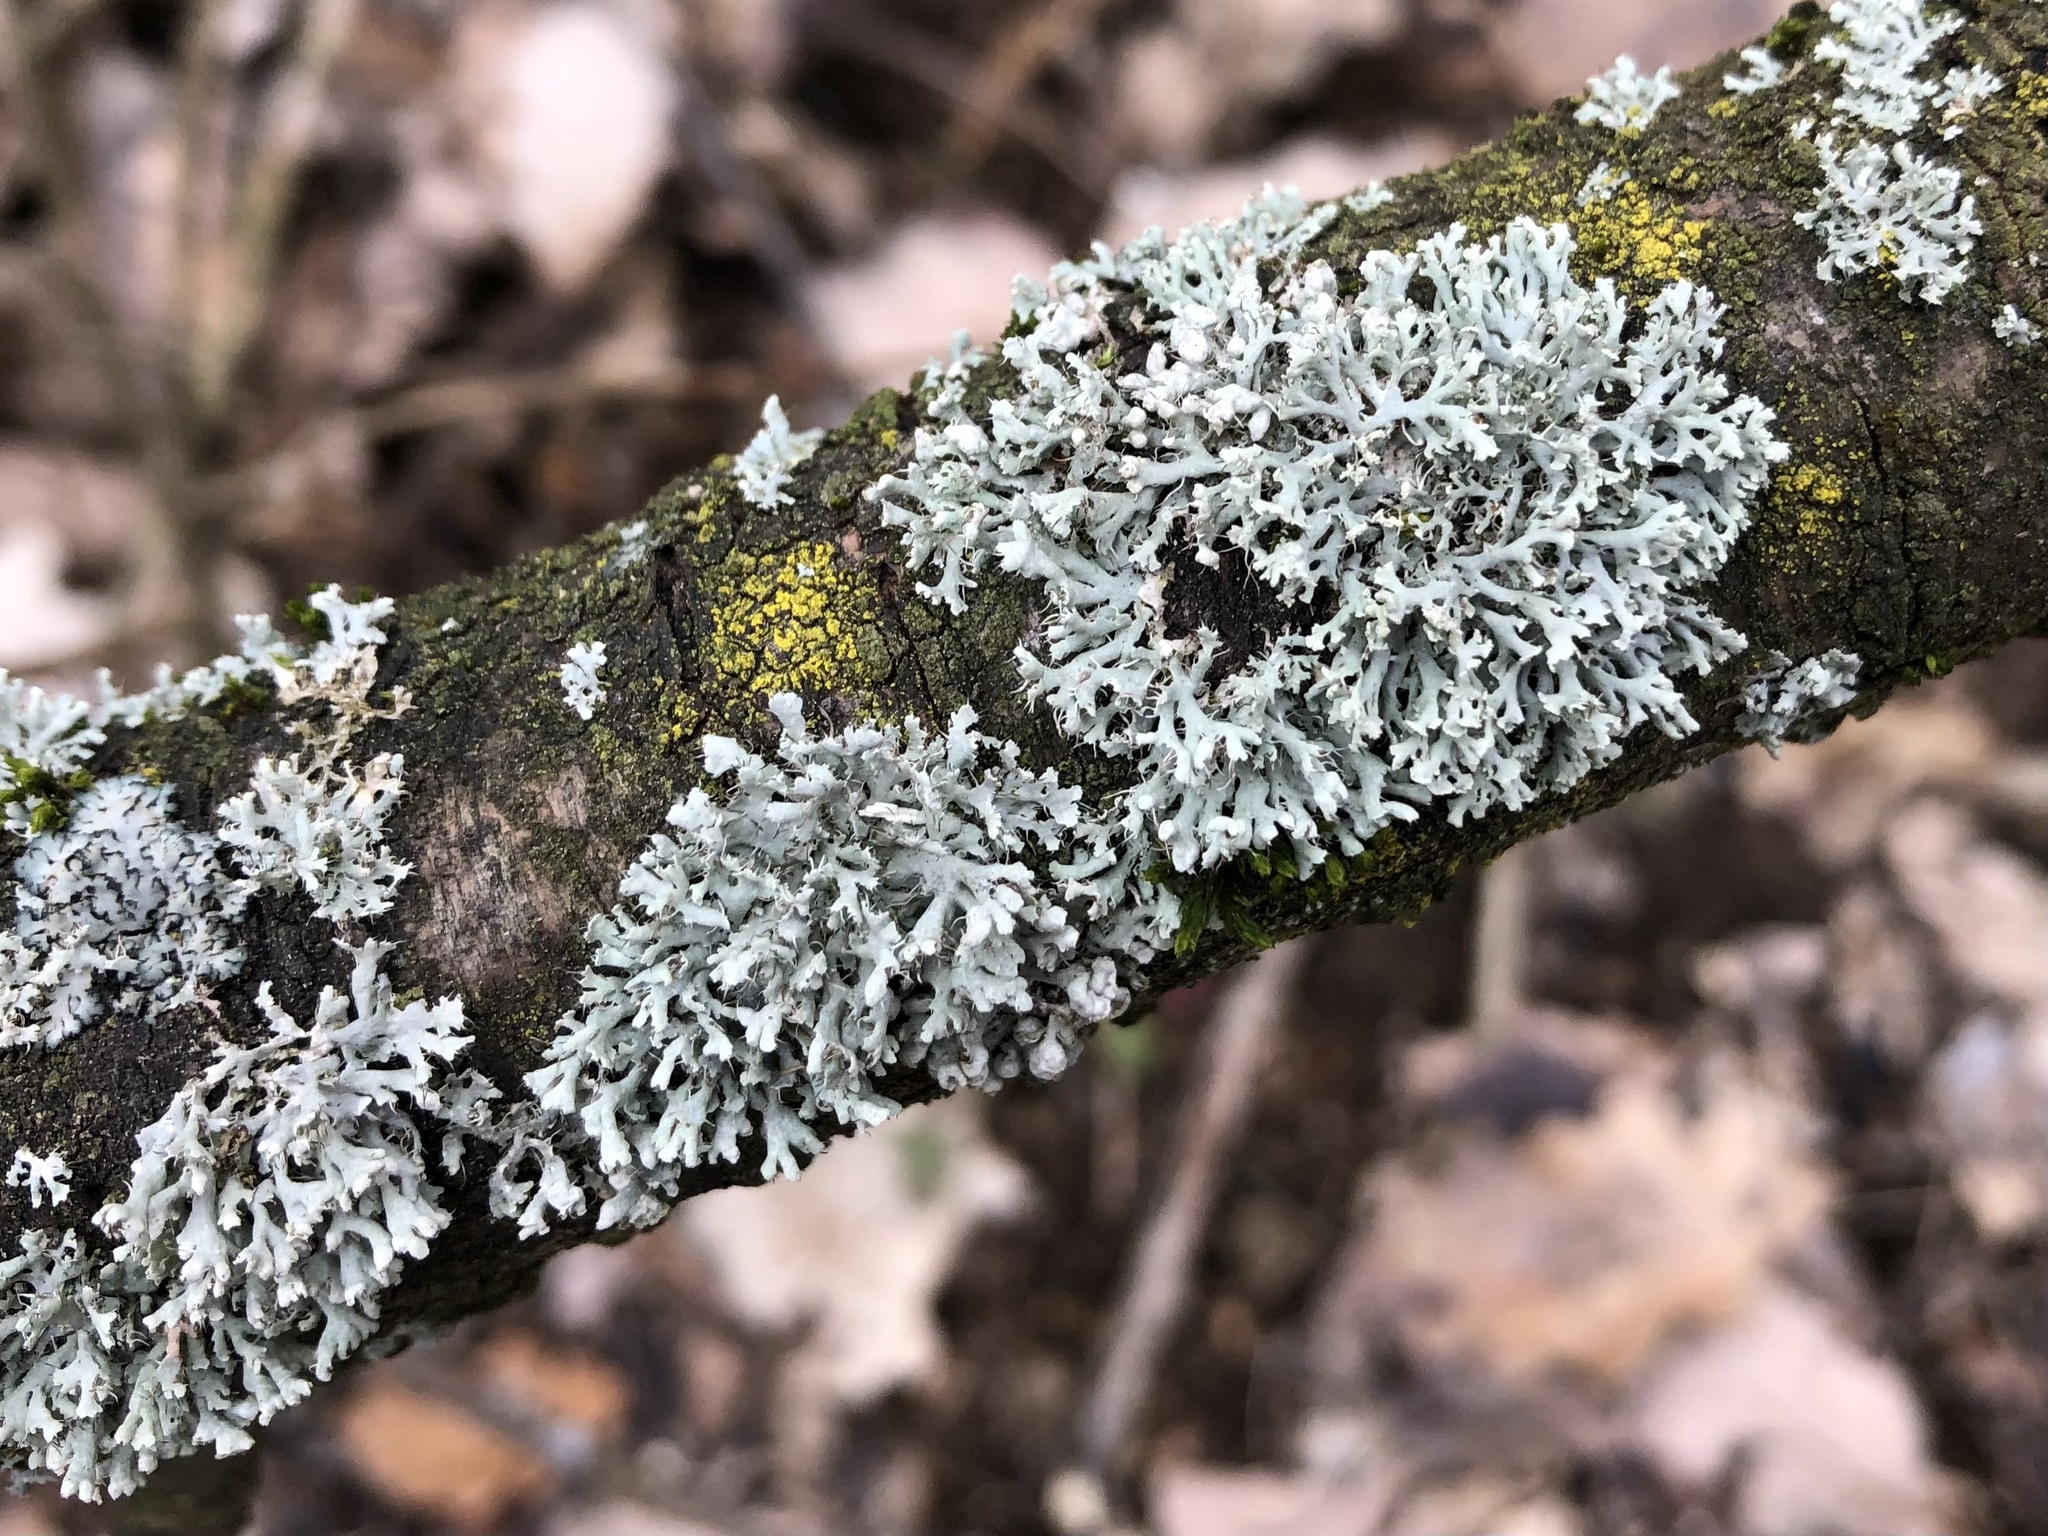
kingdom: Fungi
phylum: Ascomycota
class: Lecanoromycetes
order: Caliciales
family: Physciaceae
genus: Physcia
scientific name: Physcia adscendens
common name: Hooded rosette lichen
